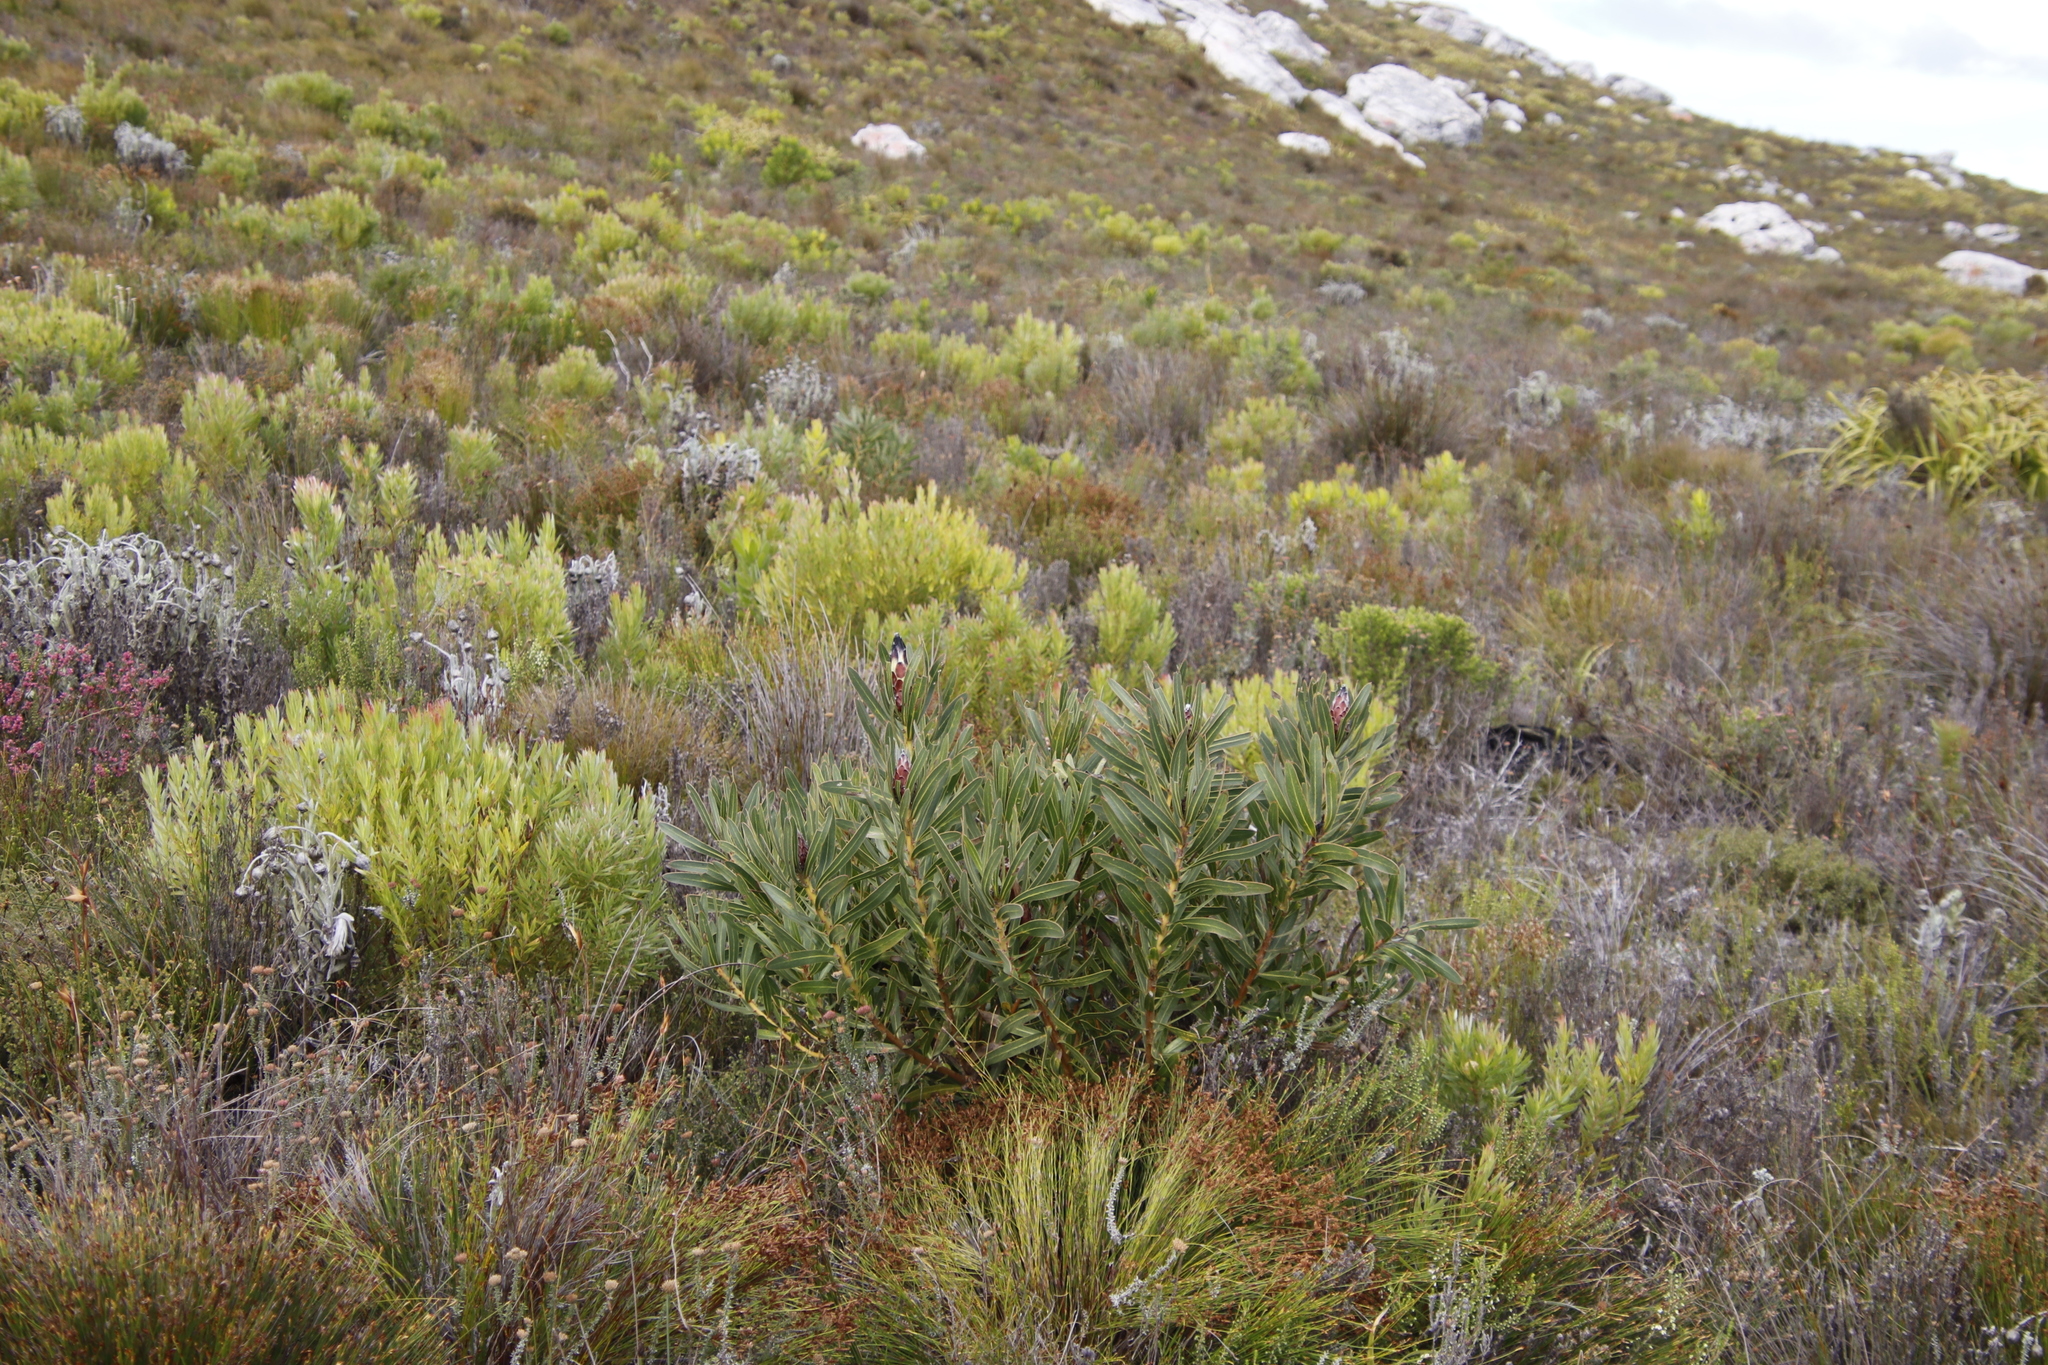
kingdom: Plantae
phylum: Tracheophyta
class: Magnoliopsida
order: Proteales
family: Proteaceae
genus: Protea
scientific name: Protea lepidocarpodendron
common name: Black-bearded protea
